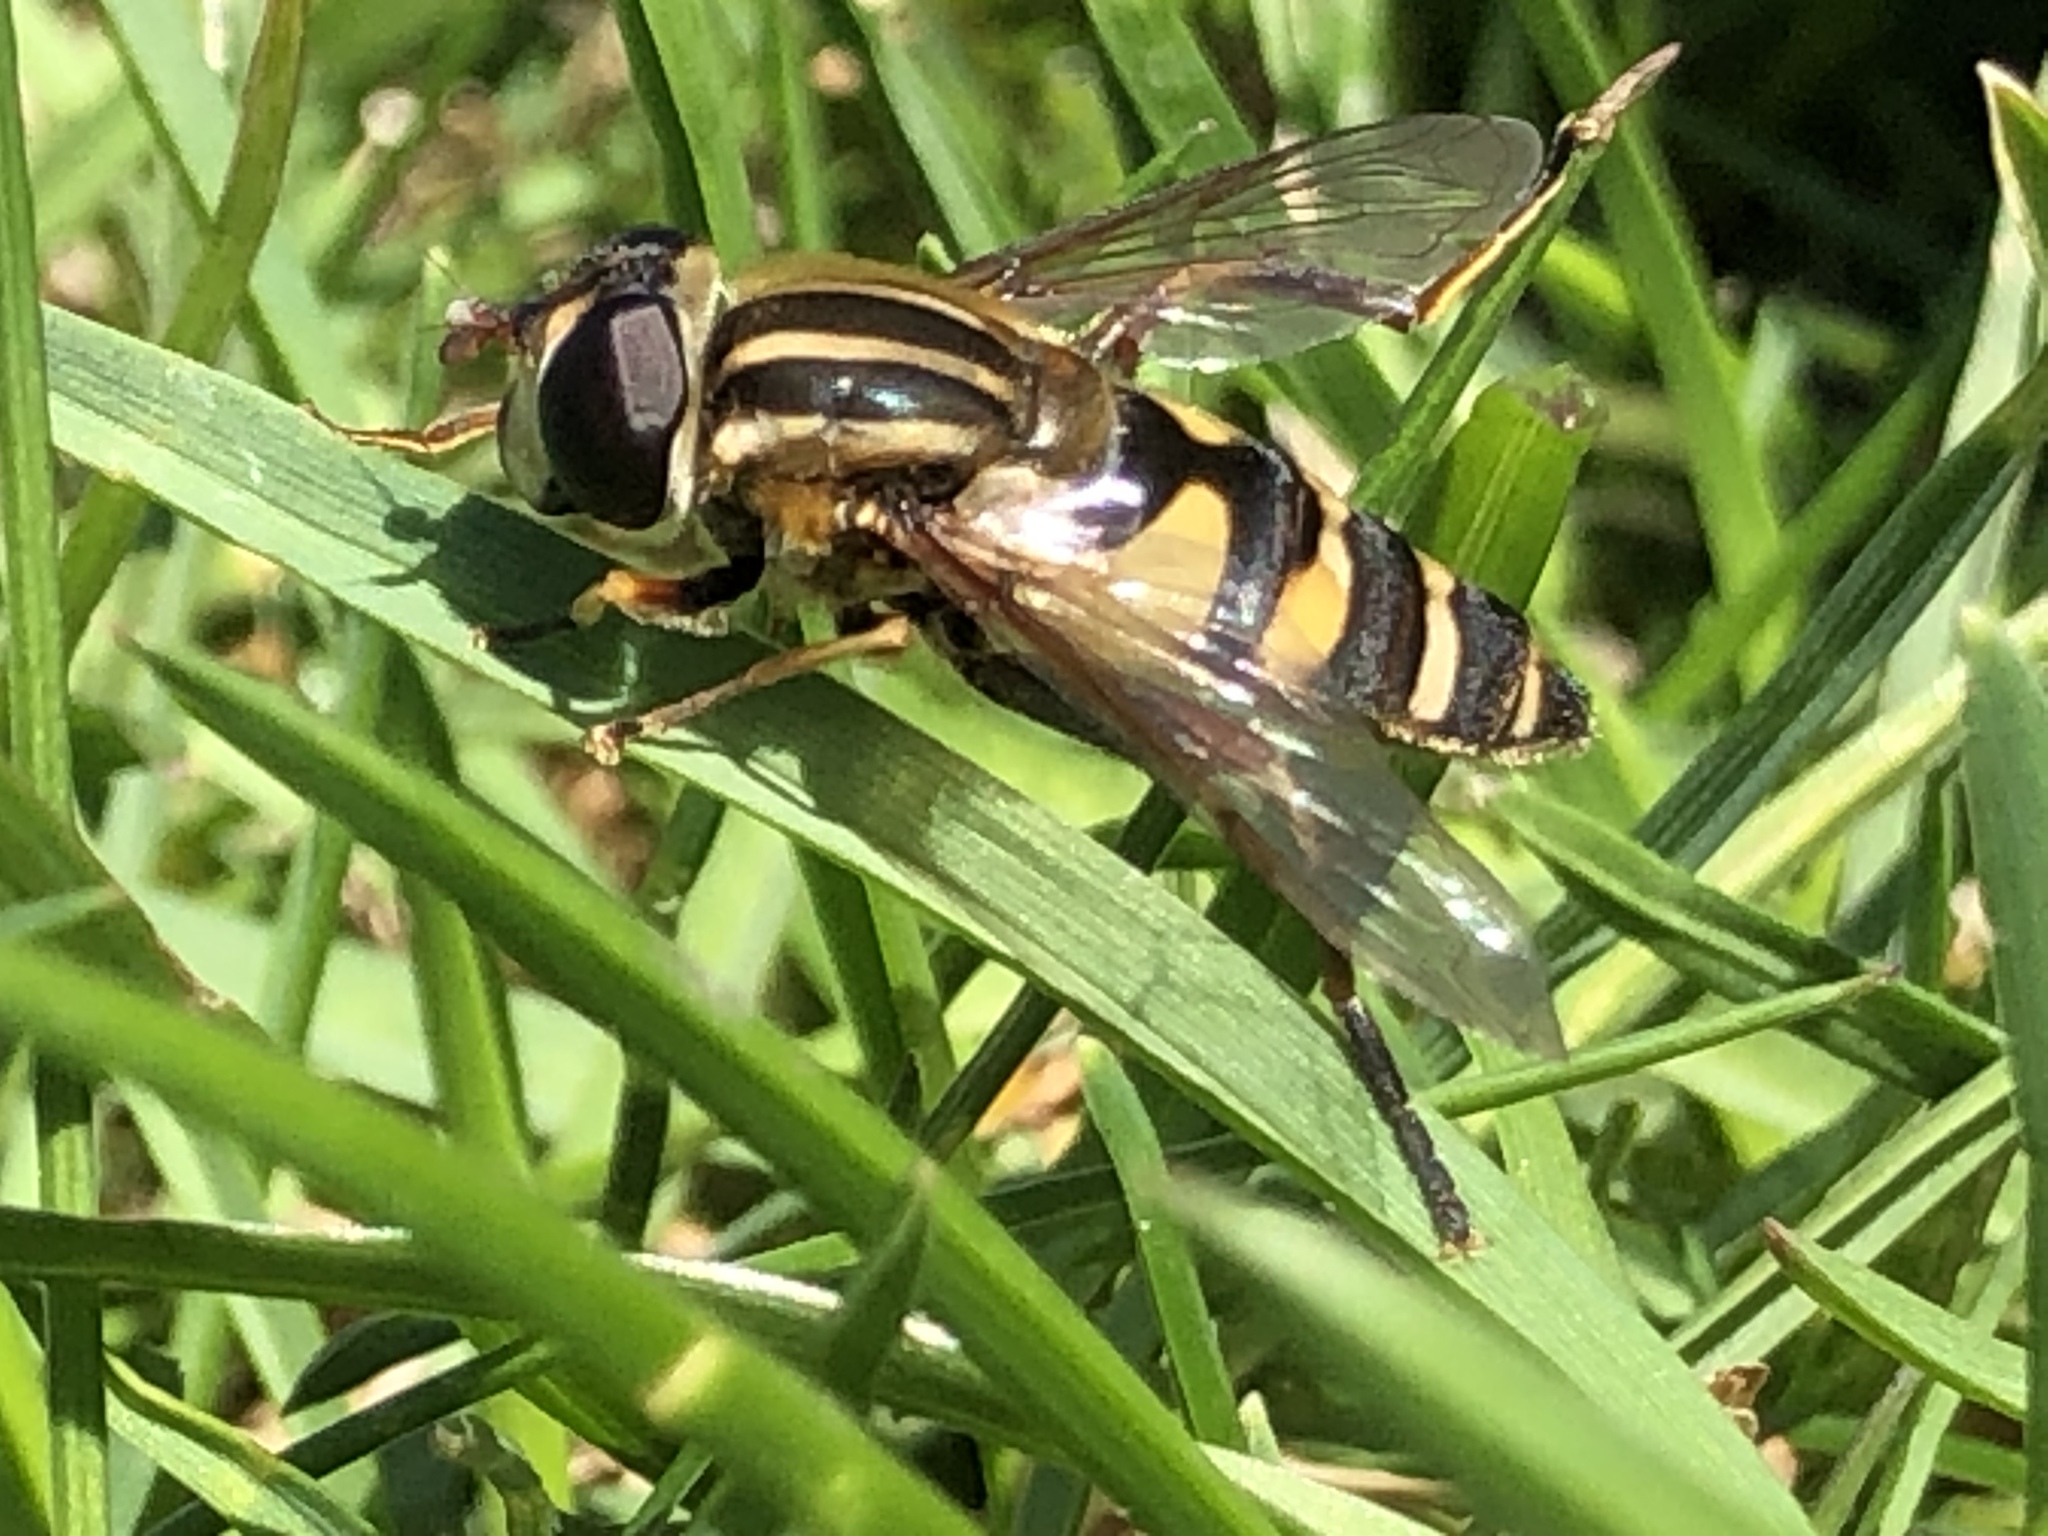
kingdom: Animalia
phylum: Arthropoda
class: Insecta
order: Diptera
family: Syrphidae
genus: Helophilus
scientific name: Helophilus fasciatus
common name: Narrow-headed marsh fly
